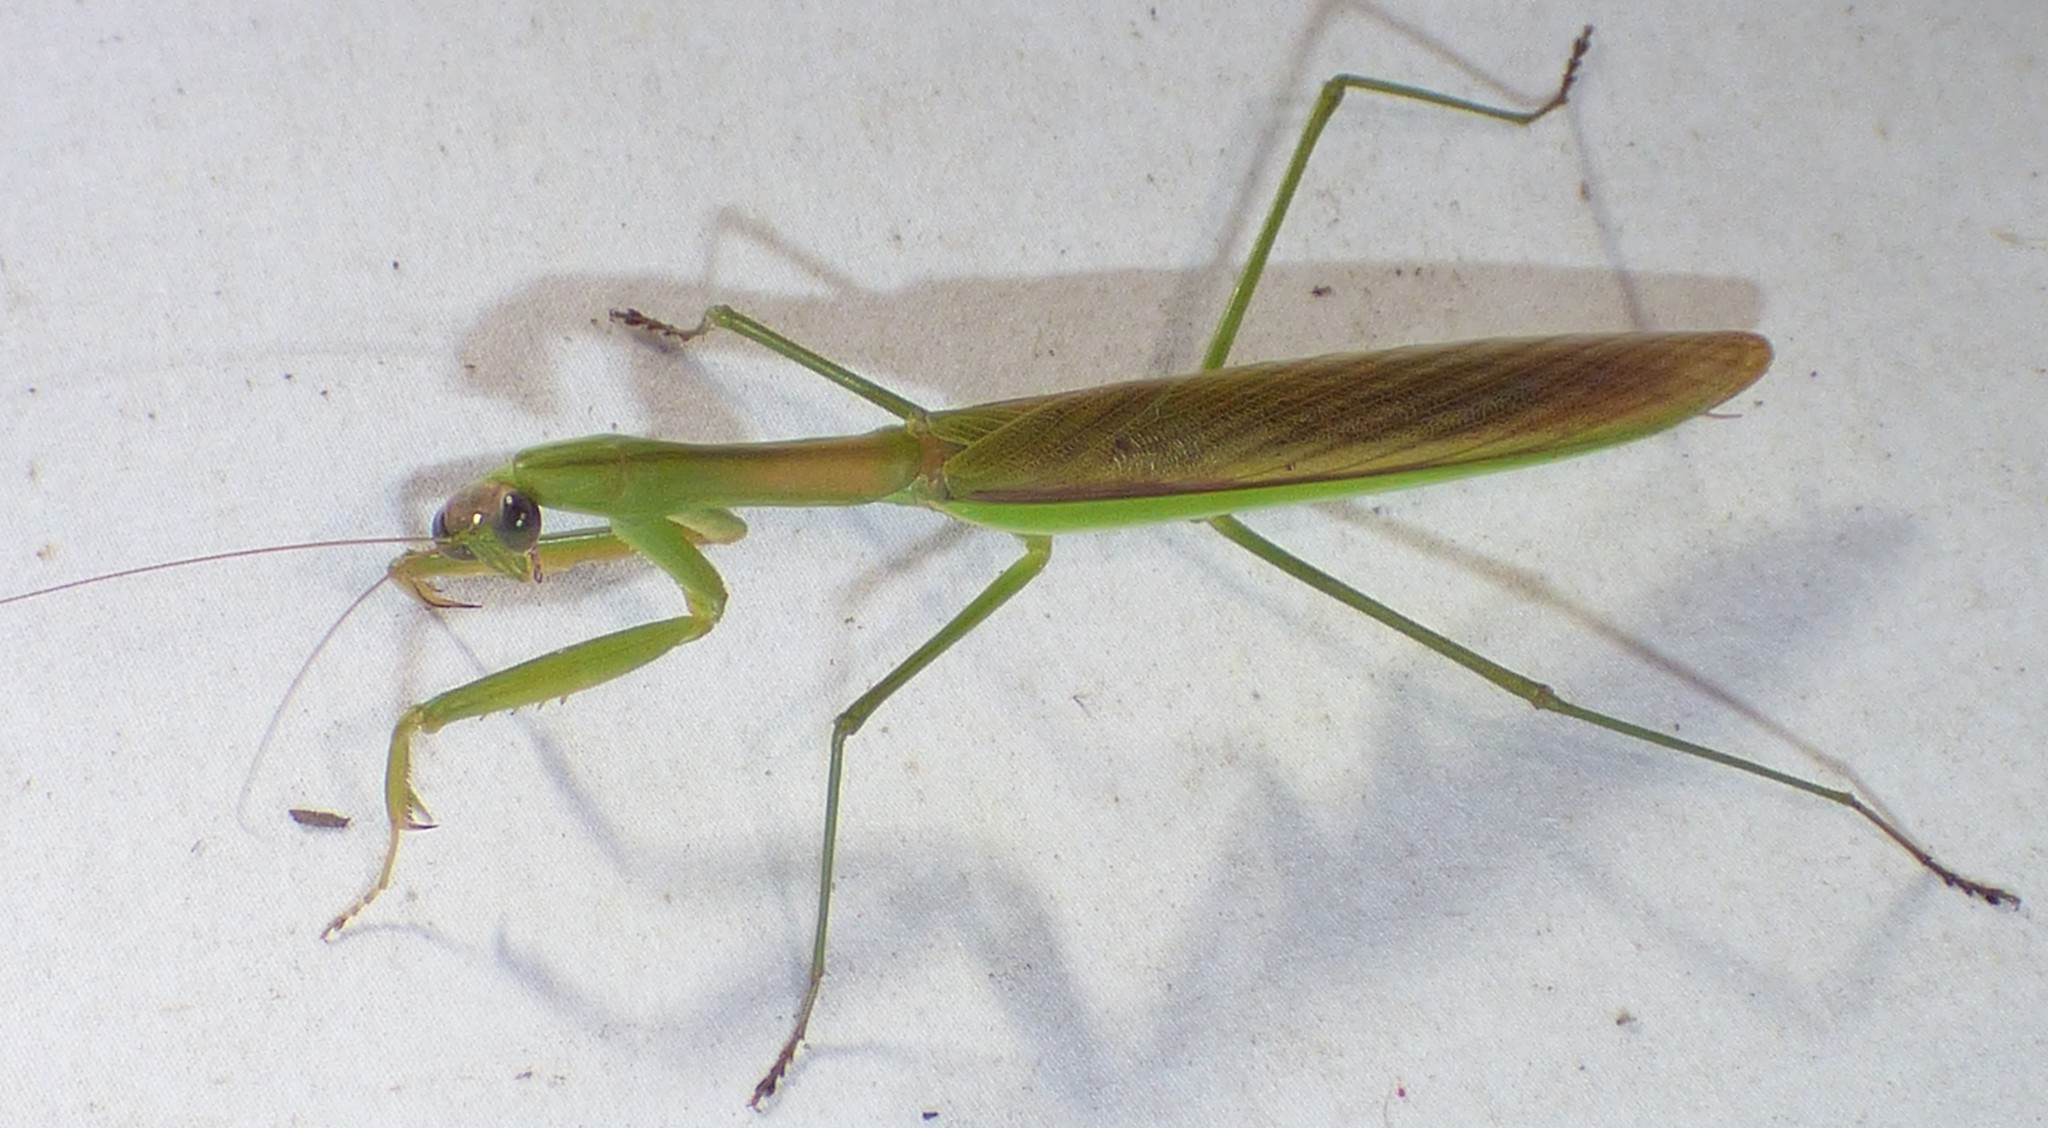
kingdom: Animalia
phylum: Arthropoda
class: Insecta
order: Mantodea
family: Mantidae
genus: Tenodera
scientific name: Tenodera sinensis
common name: Chinese mantis
